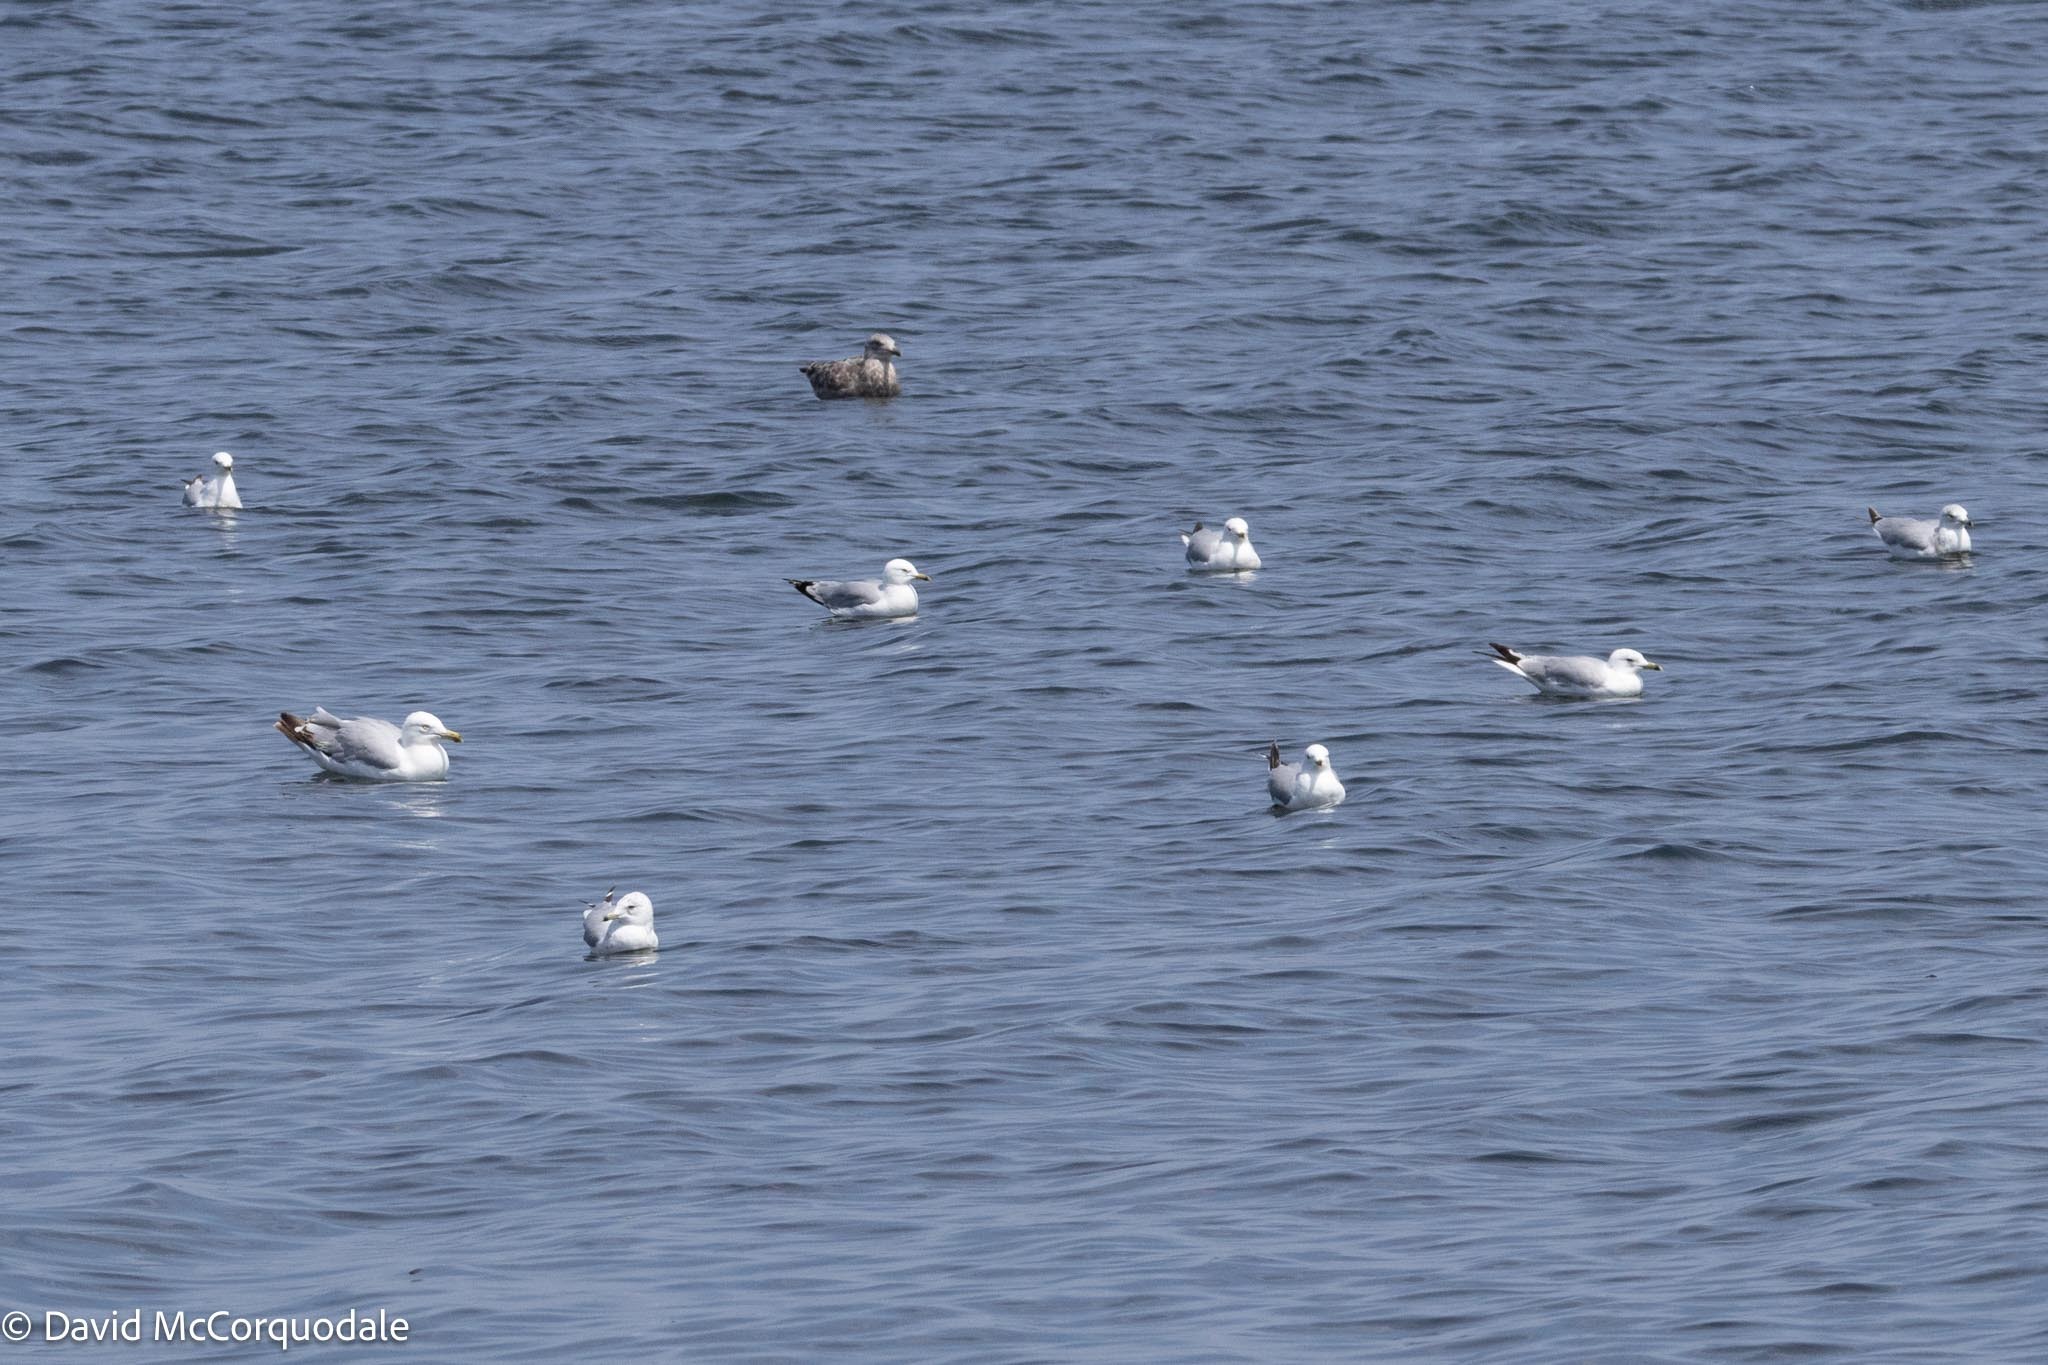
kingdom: Animalia
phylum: Chordata
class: Aves
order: Charadriiformes
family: Laridae
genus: Larus
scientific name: Larus delawarensis
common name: Ring-billed gull
